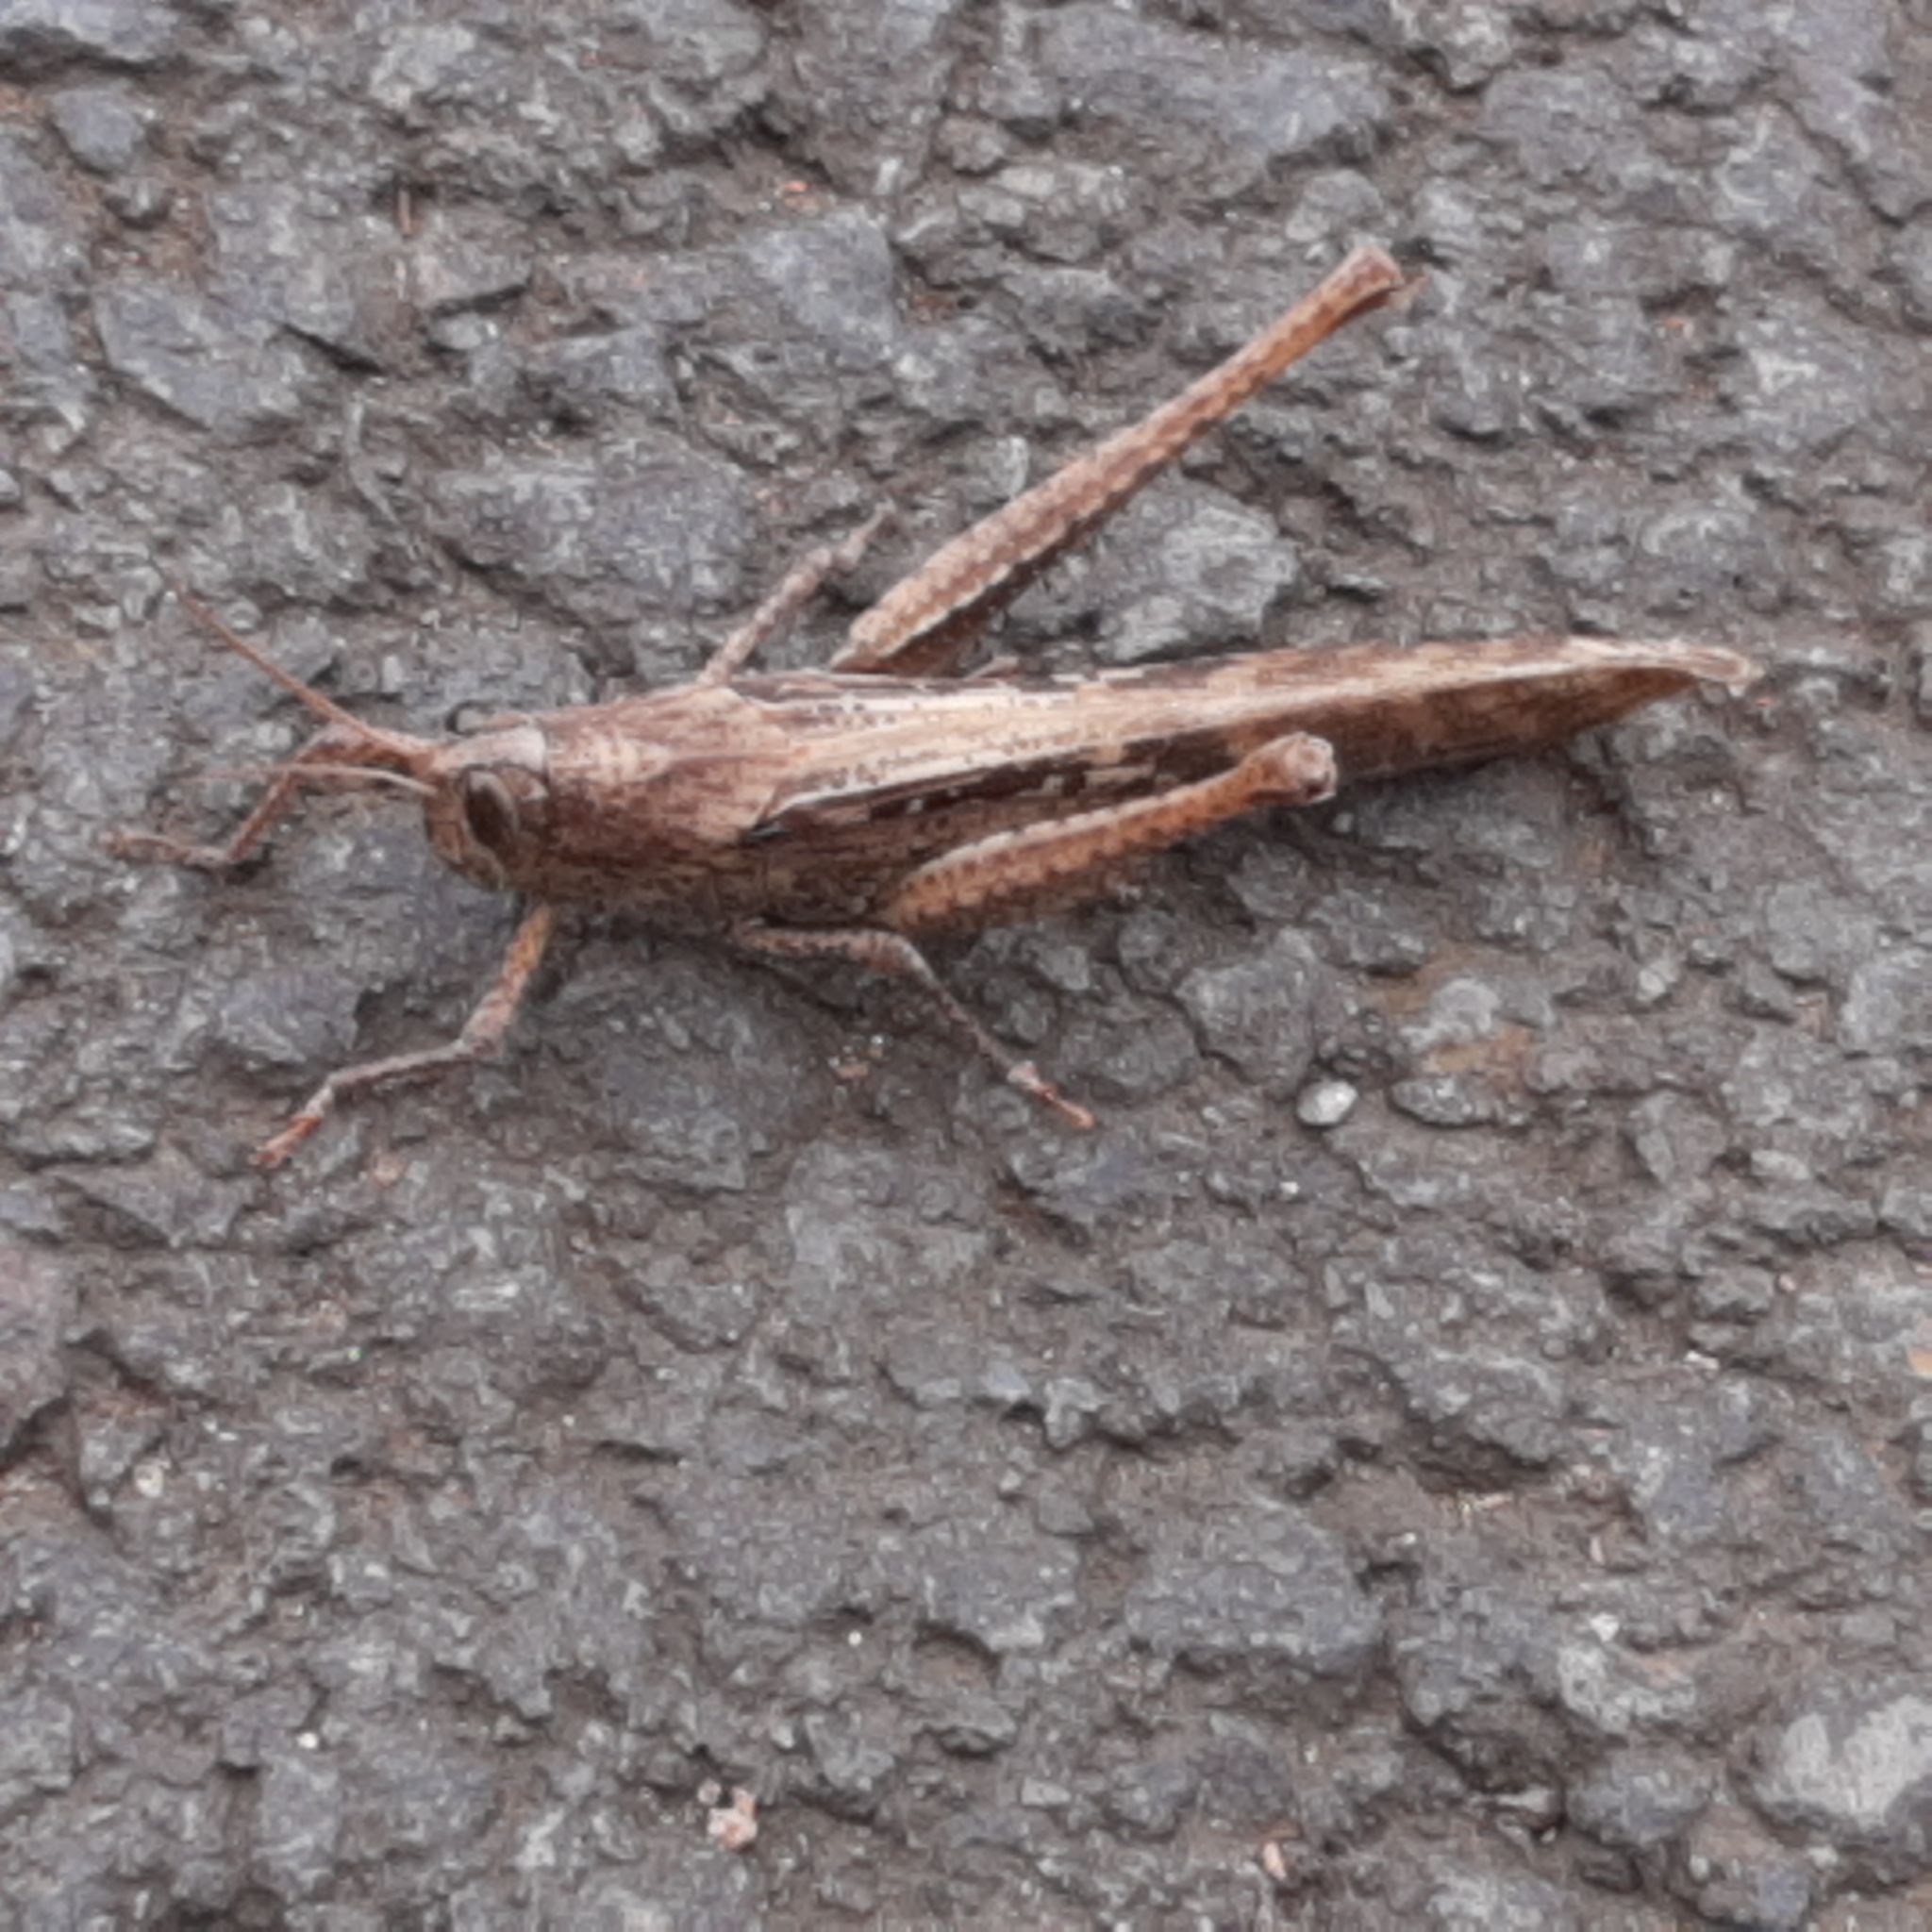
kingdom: Animalia
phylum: Arthropoda
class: Insecta
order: Orthoptera
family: Acrididae
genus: Schistocerca
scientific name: Schistocerca nitens
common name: Vagrant grasshopper
